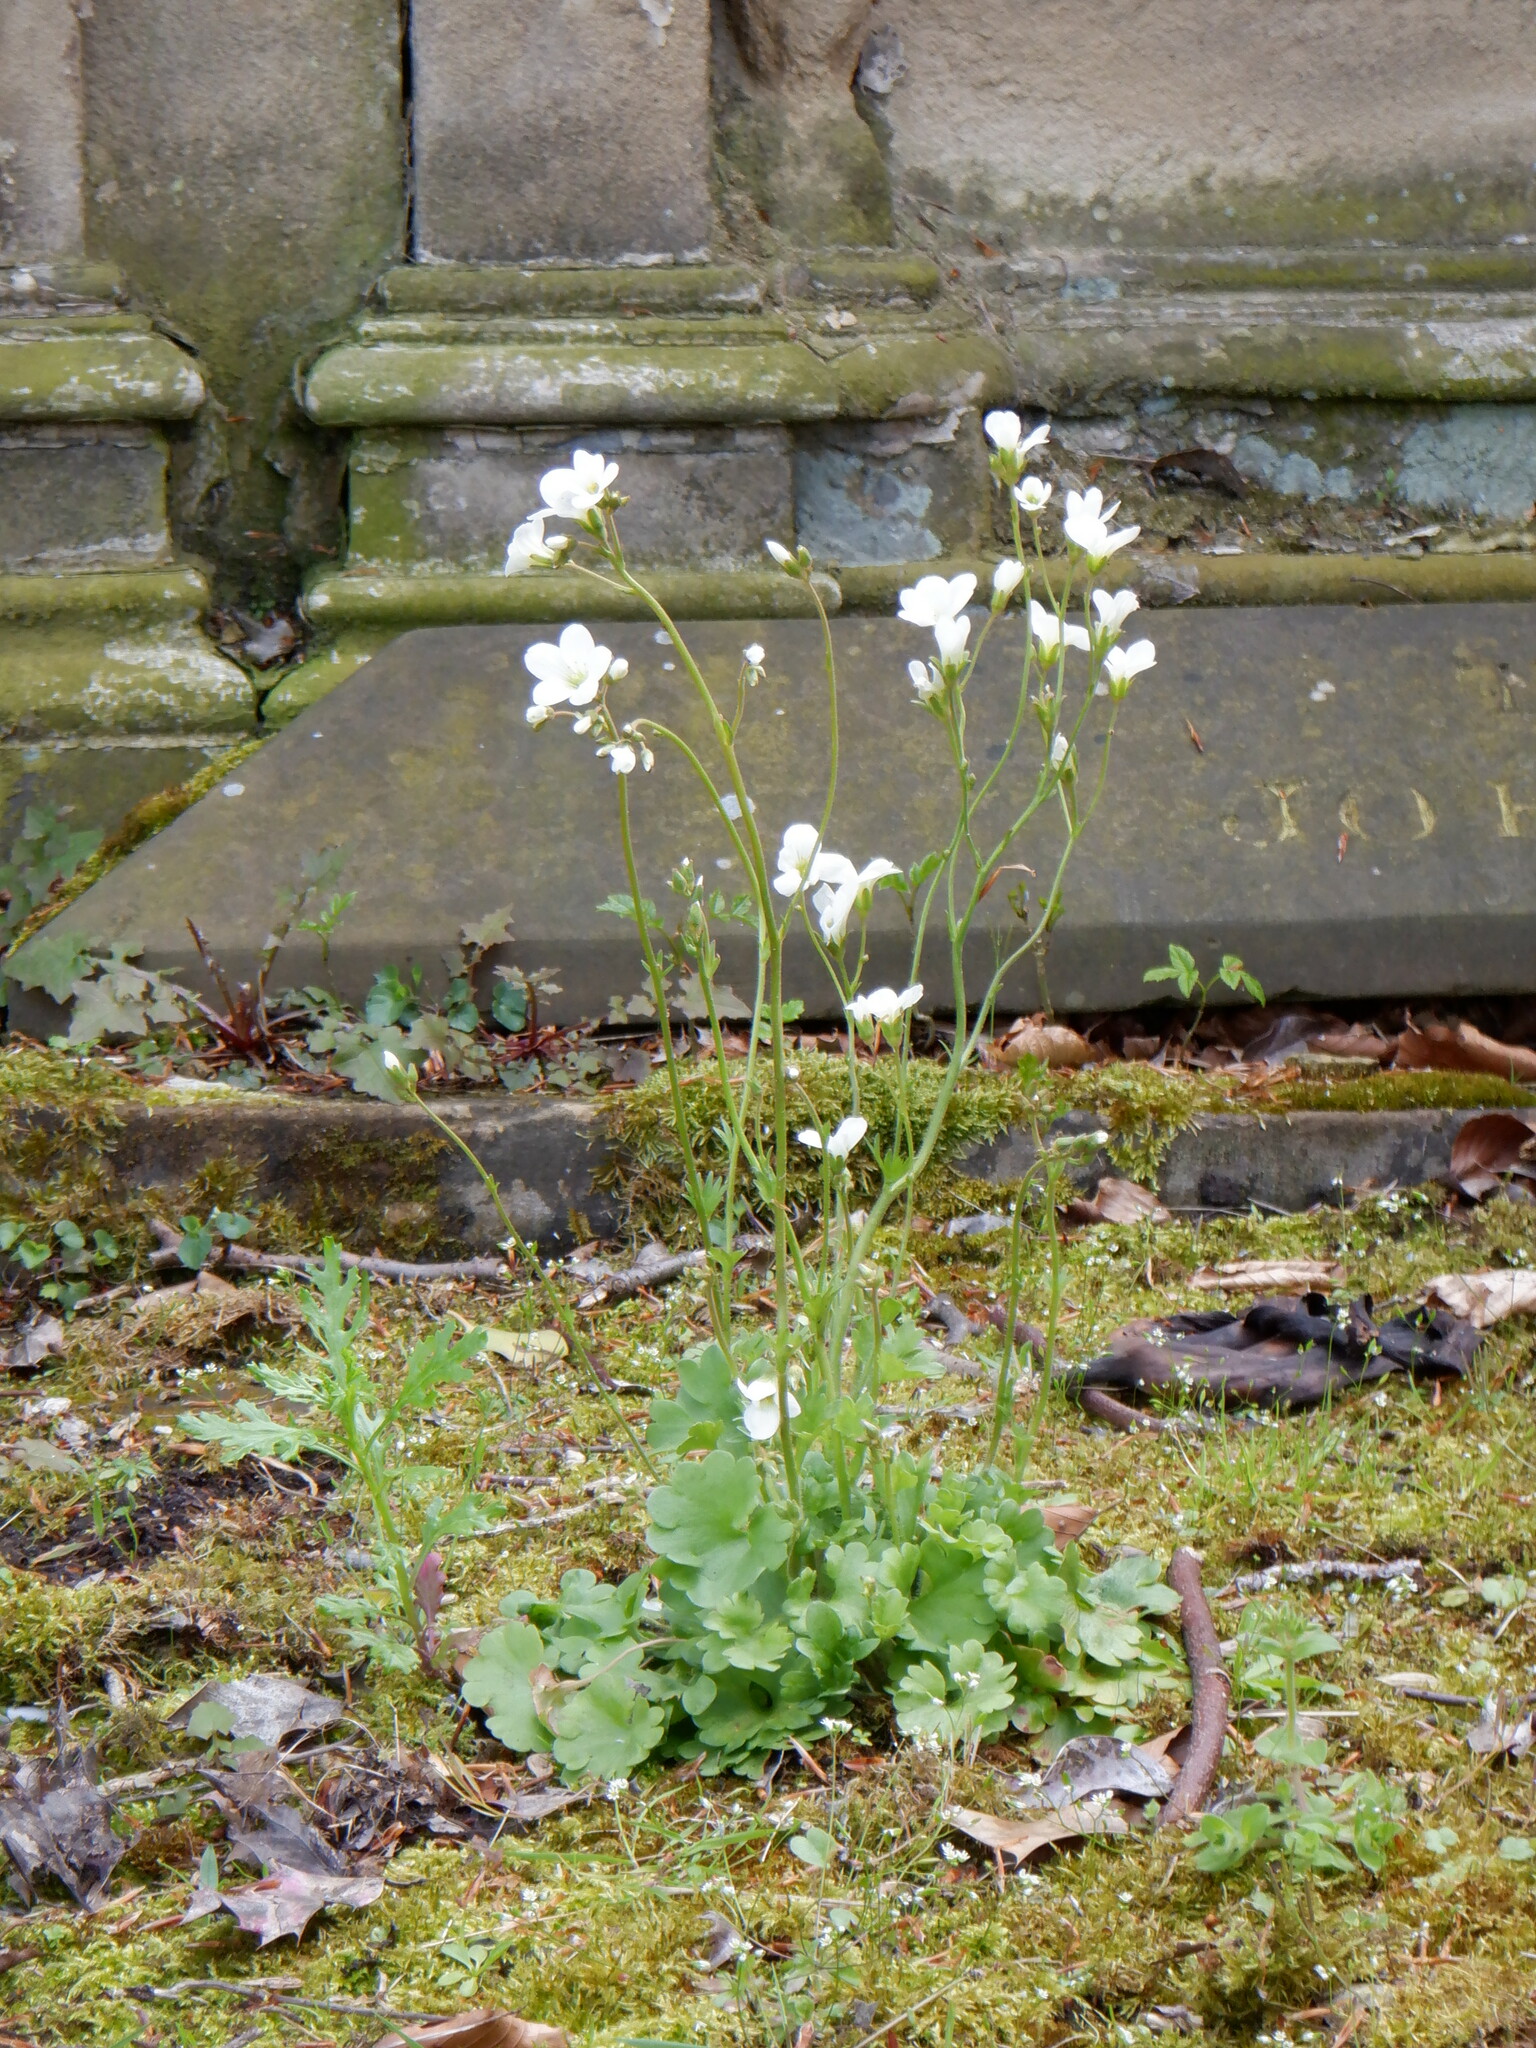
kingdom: Plantae
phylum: Tracheophyta
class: Magnoliopsida
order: Saxifragales
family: Saxifragaceae
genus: Saxifraga
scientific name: Saxifraga granulata
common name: Meadow saxifrage
